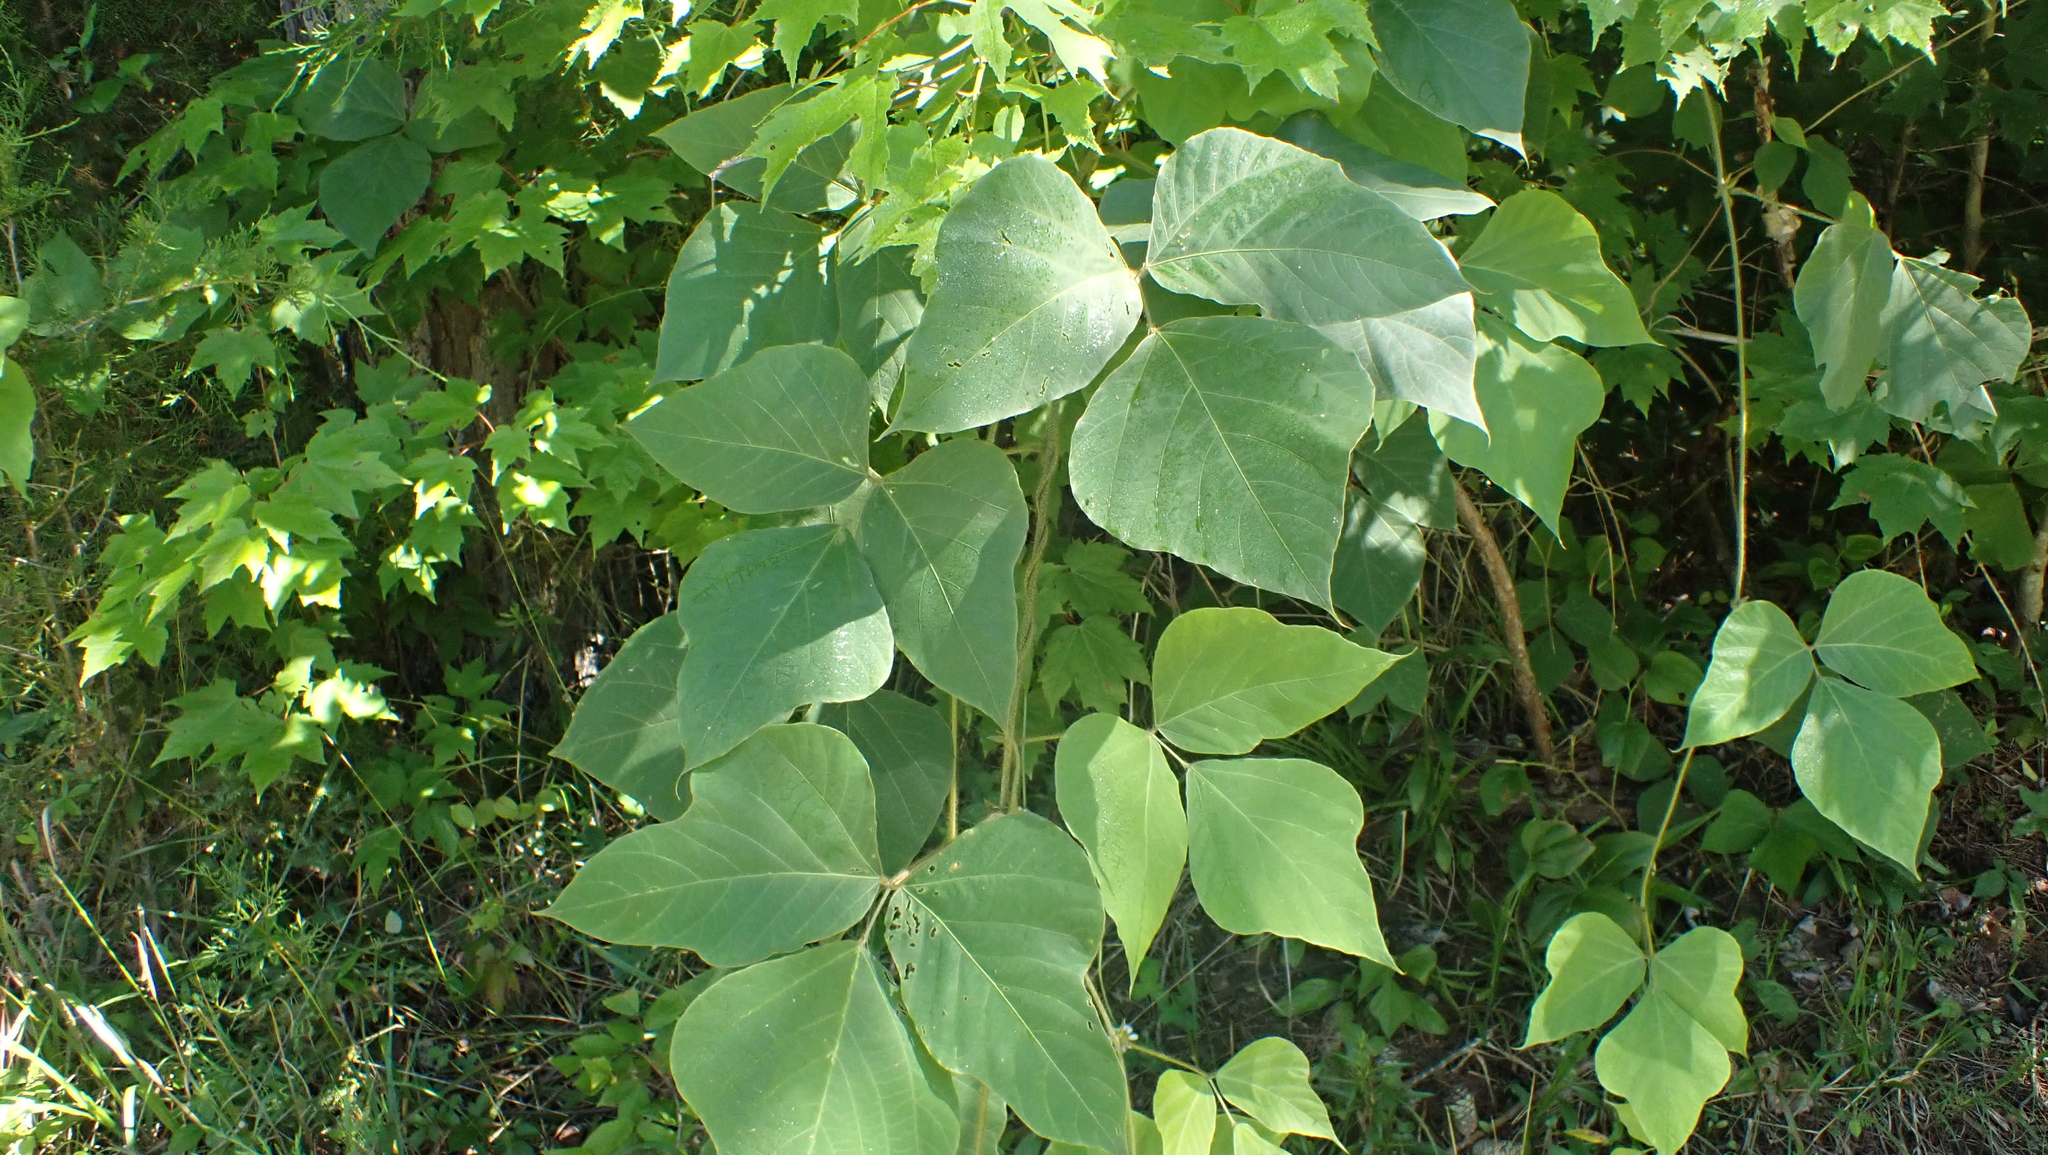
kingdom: Plantae
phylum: Tracheophyta
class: Magnoliopsida
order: Fabales
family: Fabaceae
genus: Pueraria
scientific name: Pueraria montana
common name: Kudzu
